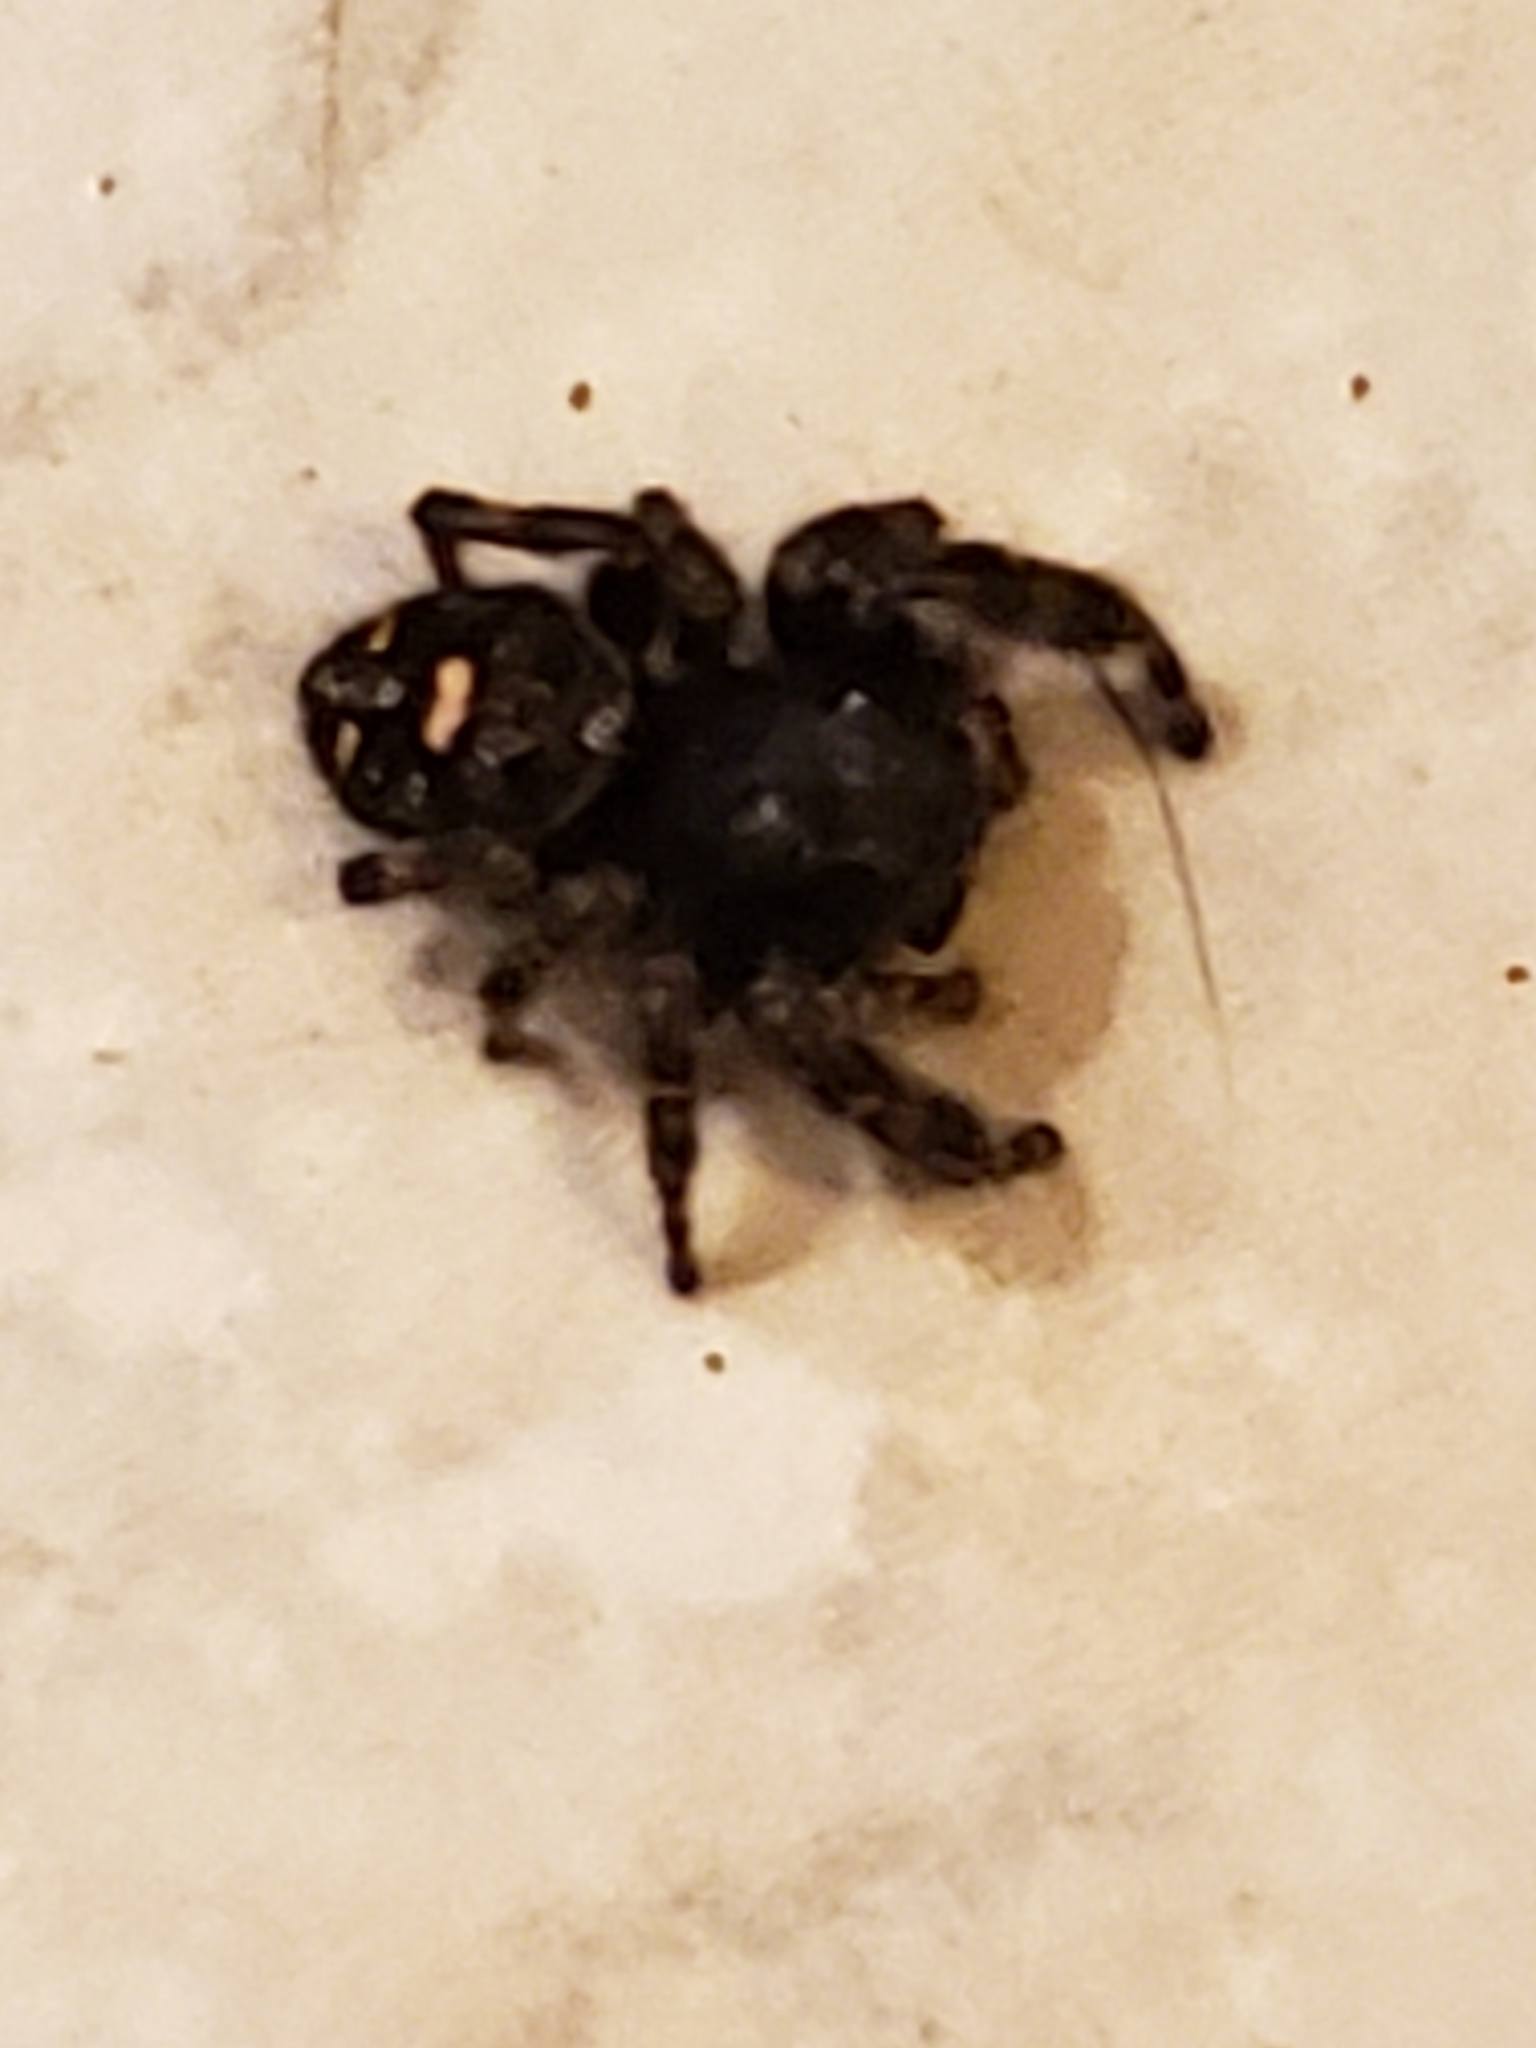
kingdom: Animalia
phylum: Arthropoda
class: Arachnida
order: Araneae
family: Salticidae
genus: Phidippus
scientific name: Phidippus audax
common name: Bold jumper
